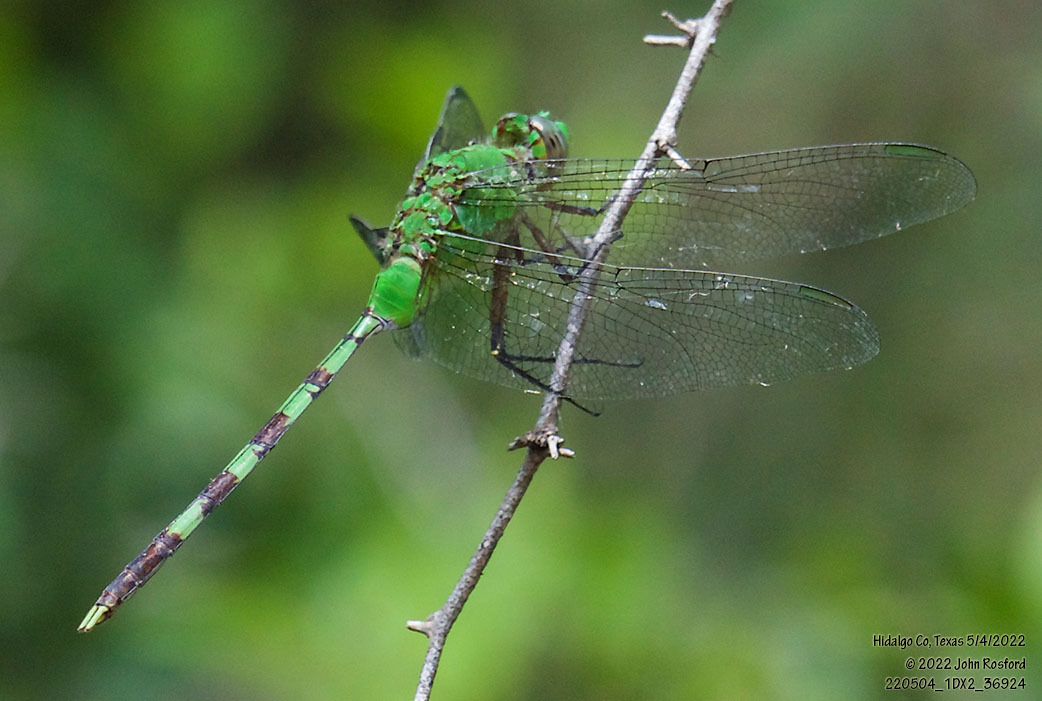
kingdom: Animalia
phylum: Arthropoda
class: Insecta
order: Odonata
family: Libellulidae
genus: Erythemis
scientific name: Erythemis vesiculosa
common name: Great pondhawk
